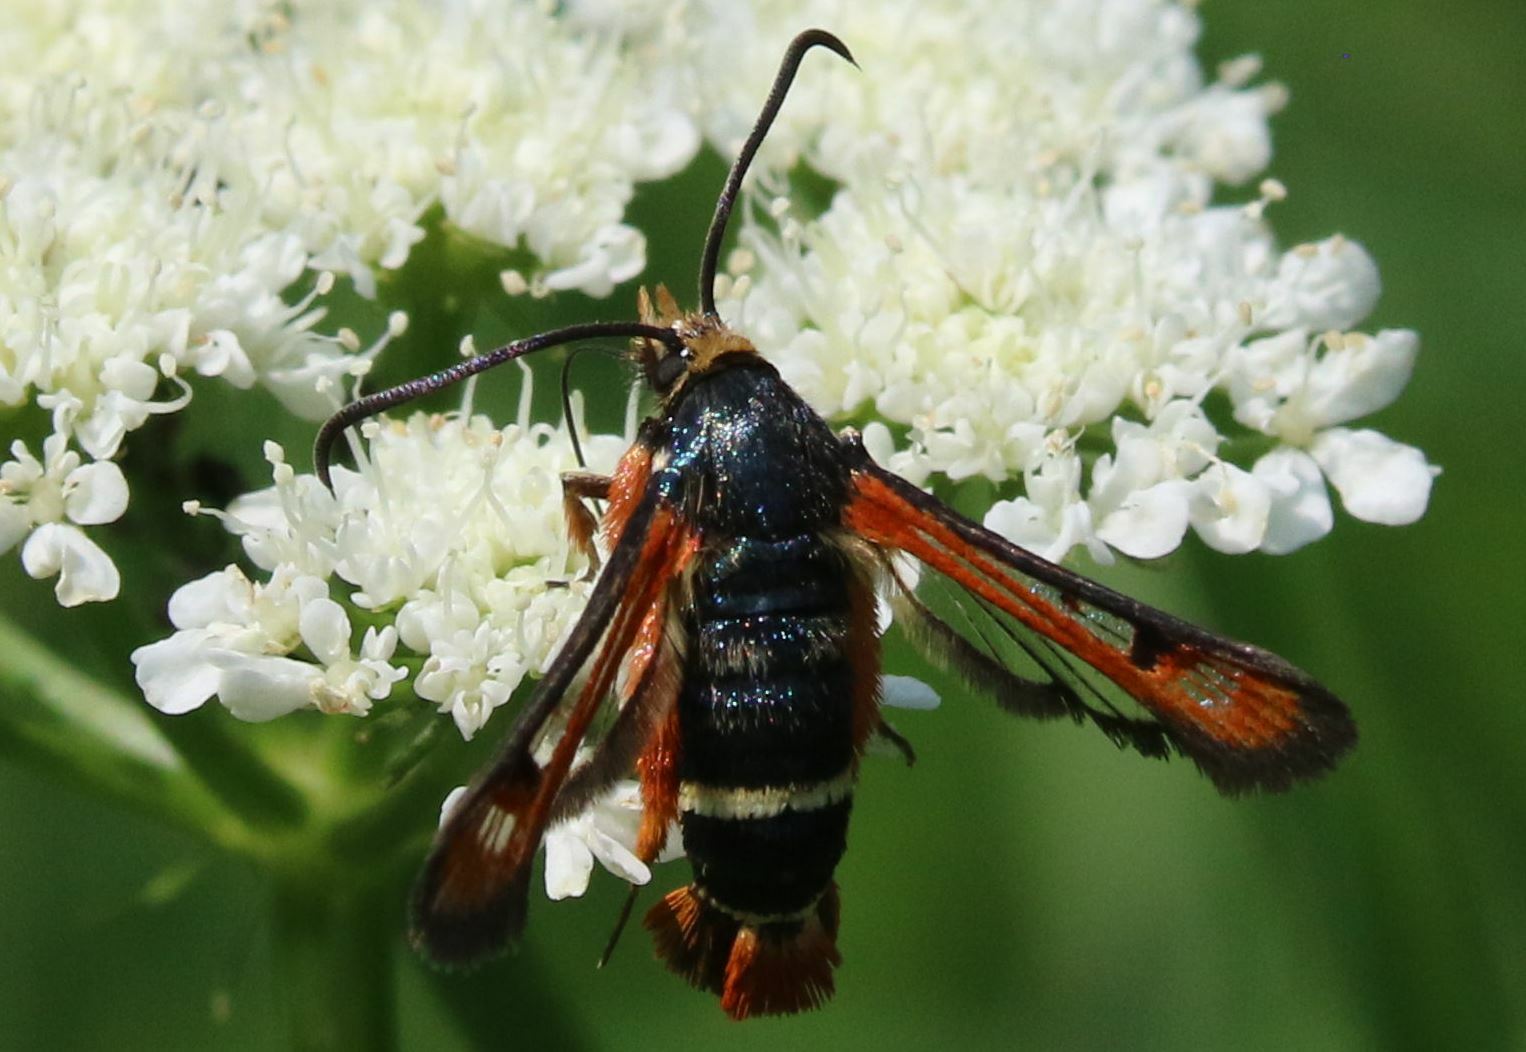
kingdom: Animalia
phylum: Arthropoda
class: Insecta
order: Lepidoptera
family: Sesiidae
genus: Pyropteron
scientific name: Pyropteron chrysidiforme
